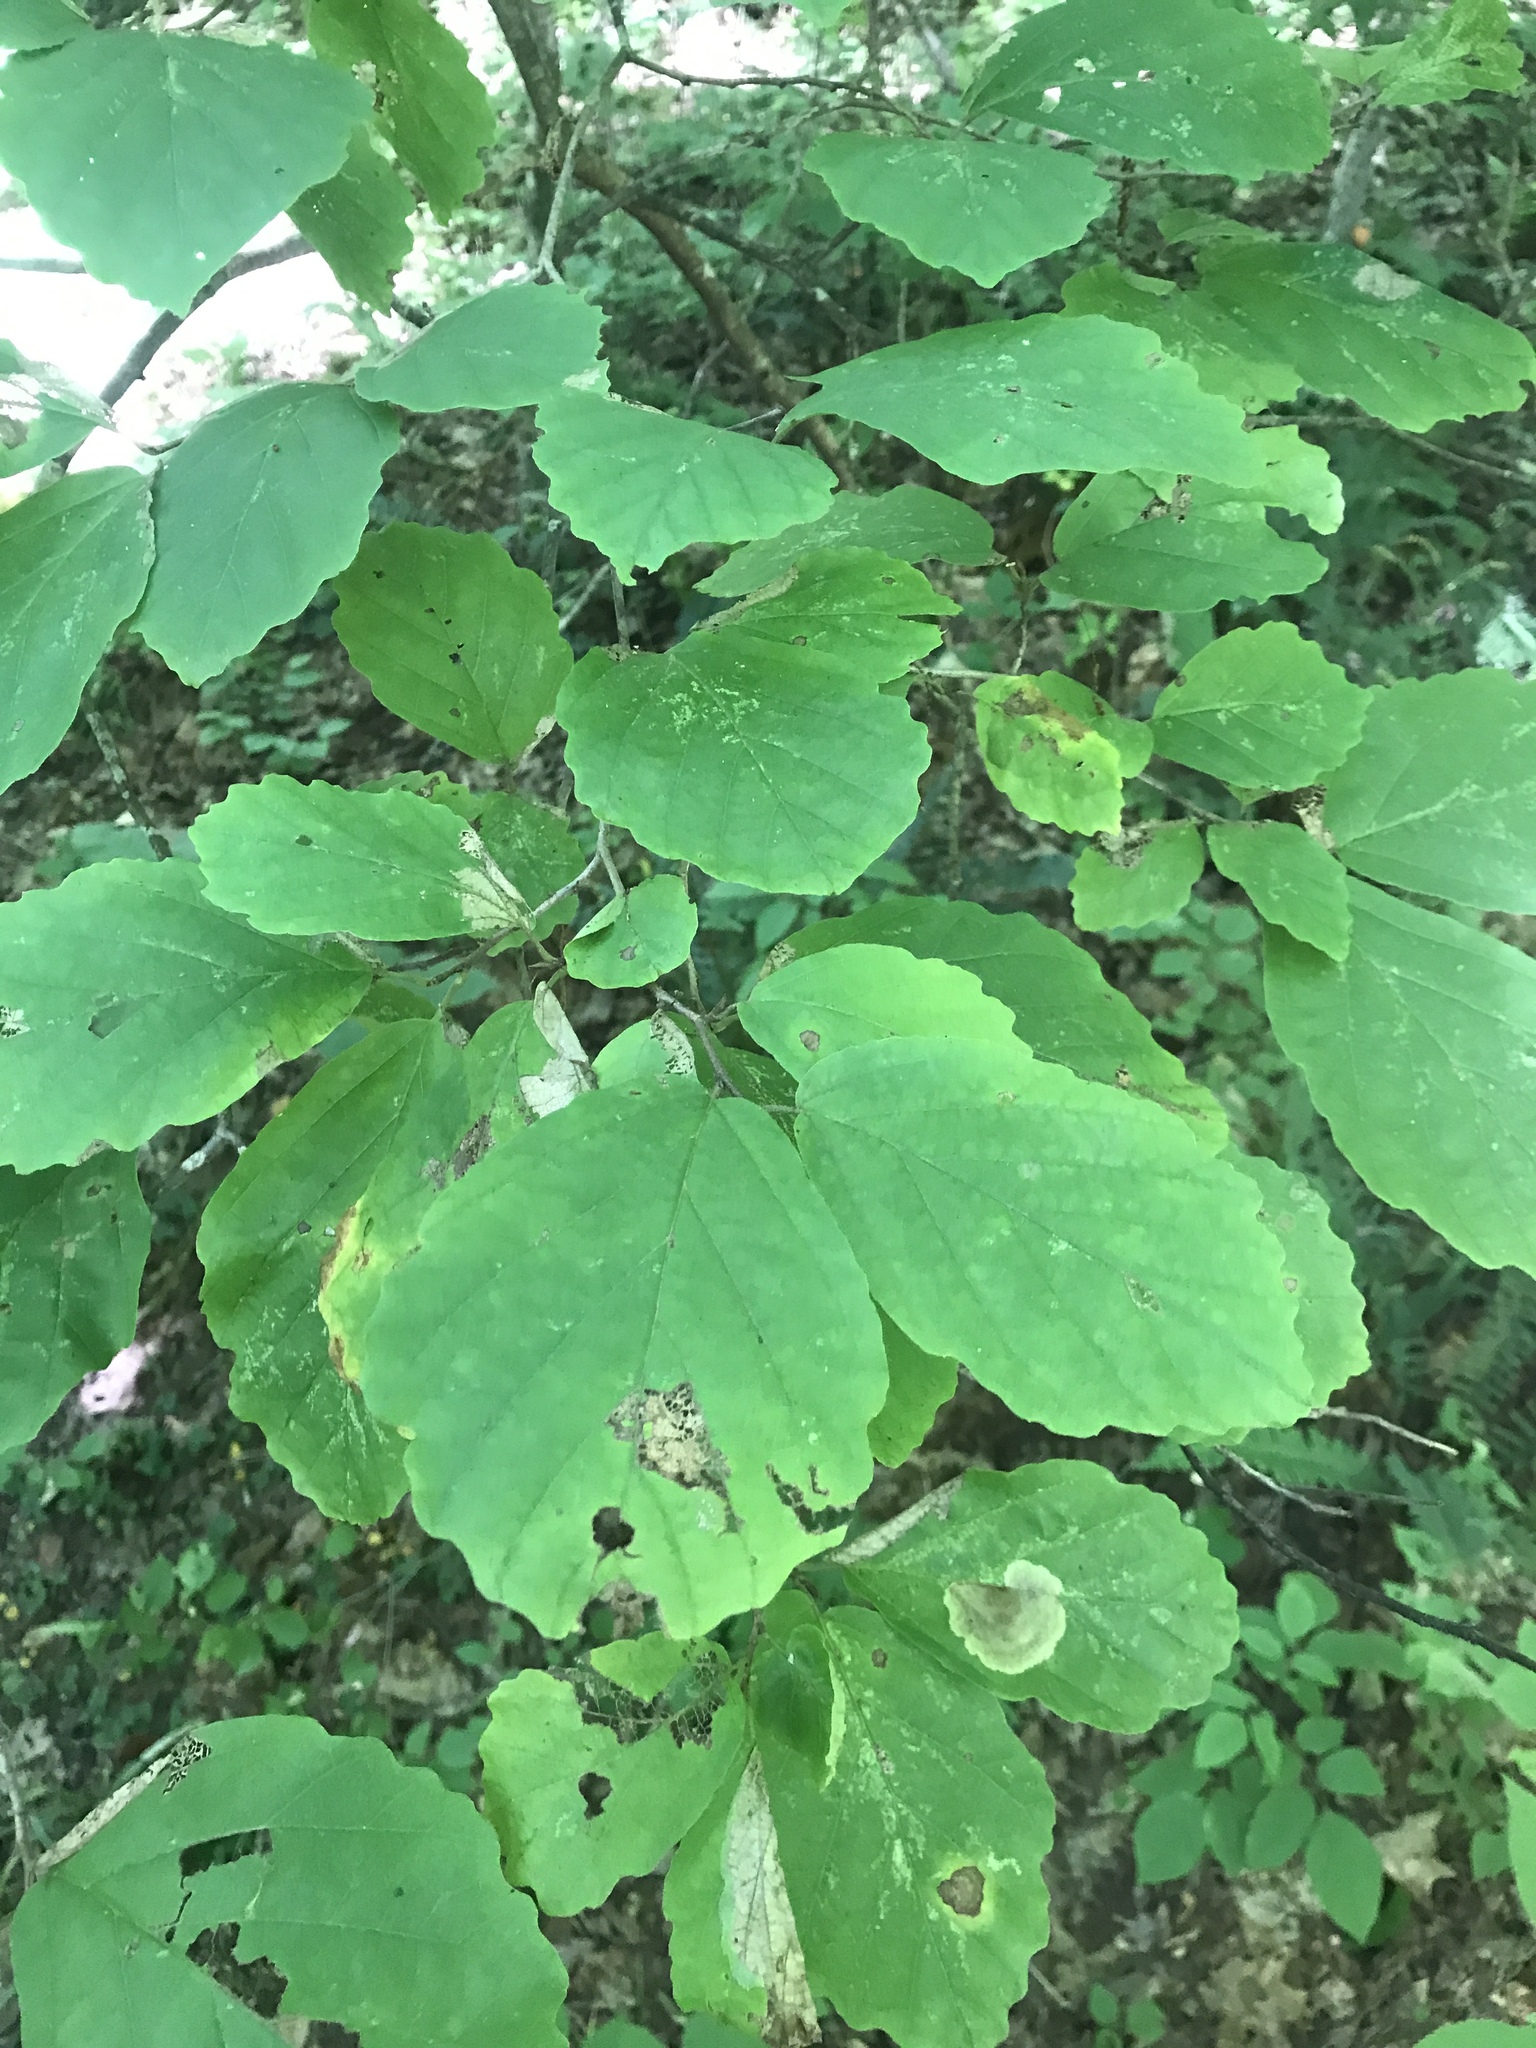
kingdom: Plantae
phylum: Tracheophyta
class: Magnoliopsida
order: Saxifragales
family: Hamamelidaceae
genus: Hamamelis
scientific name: Hamamelis virginiana
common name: Witch-hazel
